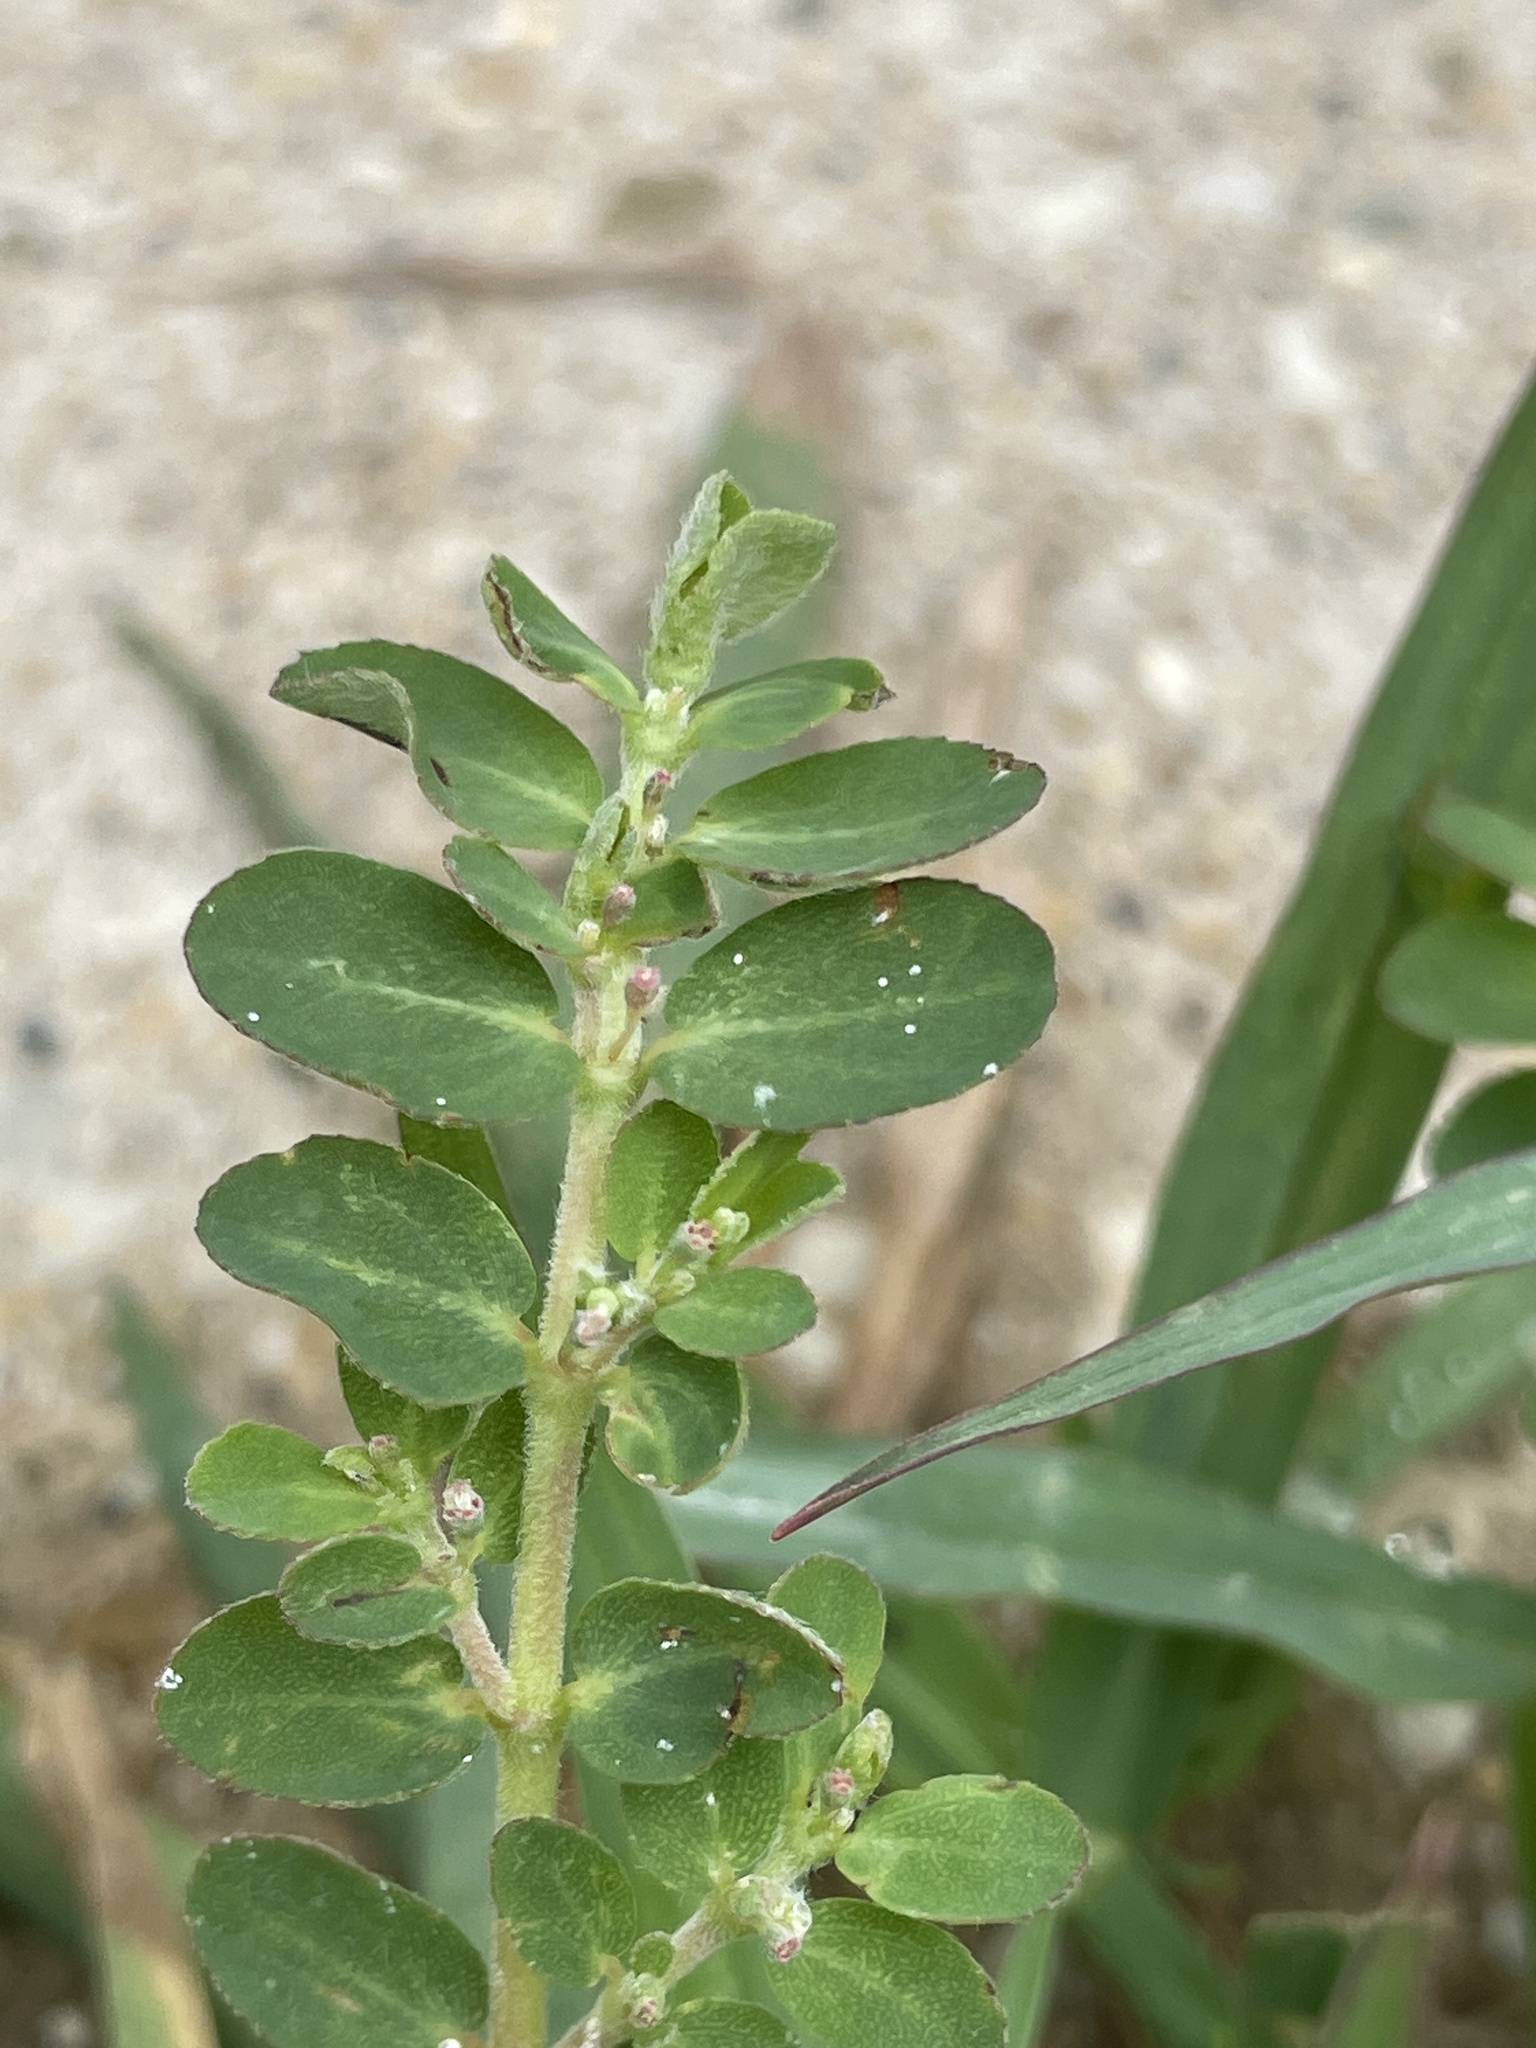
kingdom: Plantae
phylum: Tracheophyta
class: Magnoliopsida
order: Malpighiales
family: Euphorbiaceae
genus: Euphorbia
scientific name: Euphorbia prostrata
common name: Prostrate sandmat
